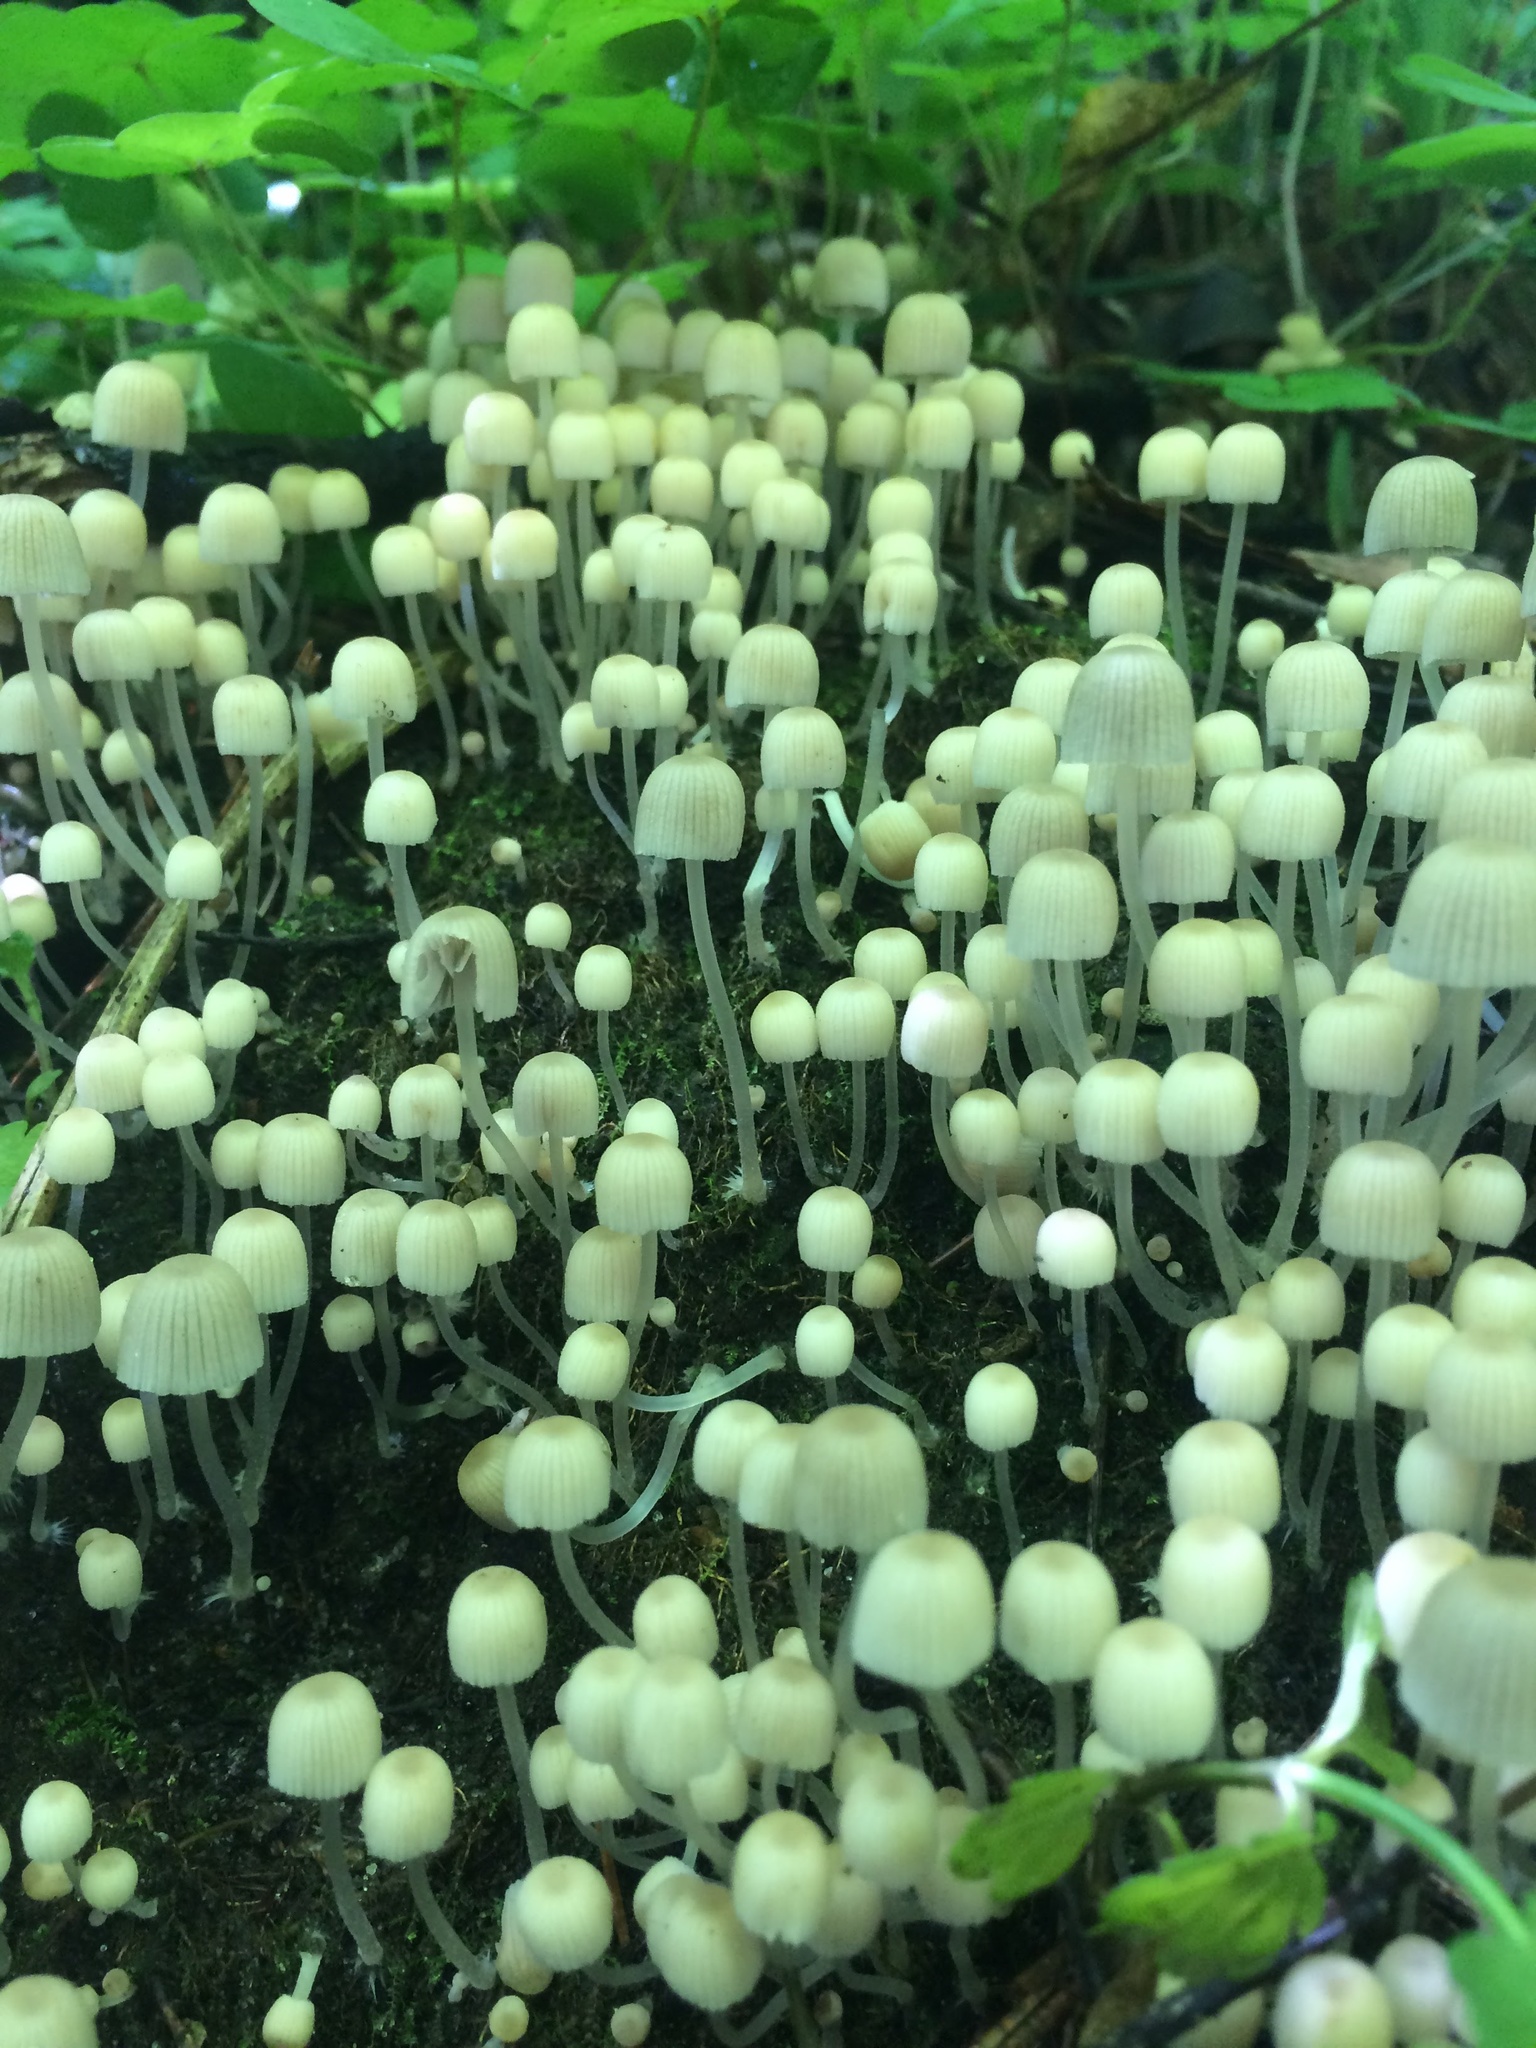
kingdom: Fungi
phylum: Basidiomycota
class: Agaricomycetes
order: Agaricales
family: Psathyrellaceae
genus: Coprinellus
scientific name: Coprinellus disseminatus
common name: Fairies' bonnets
